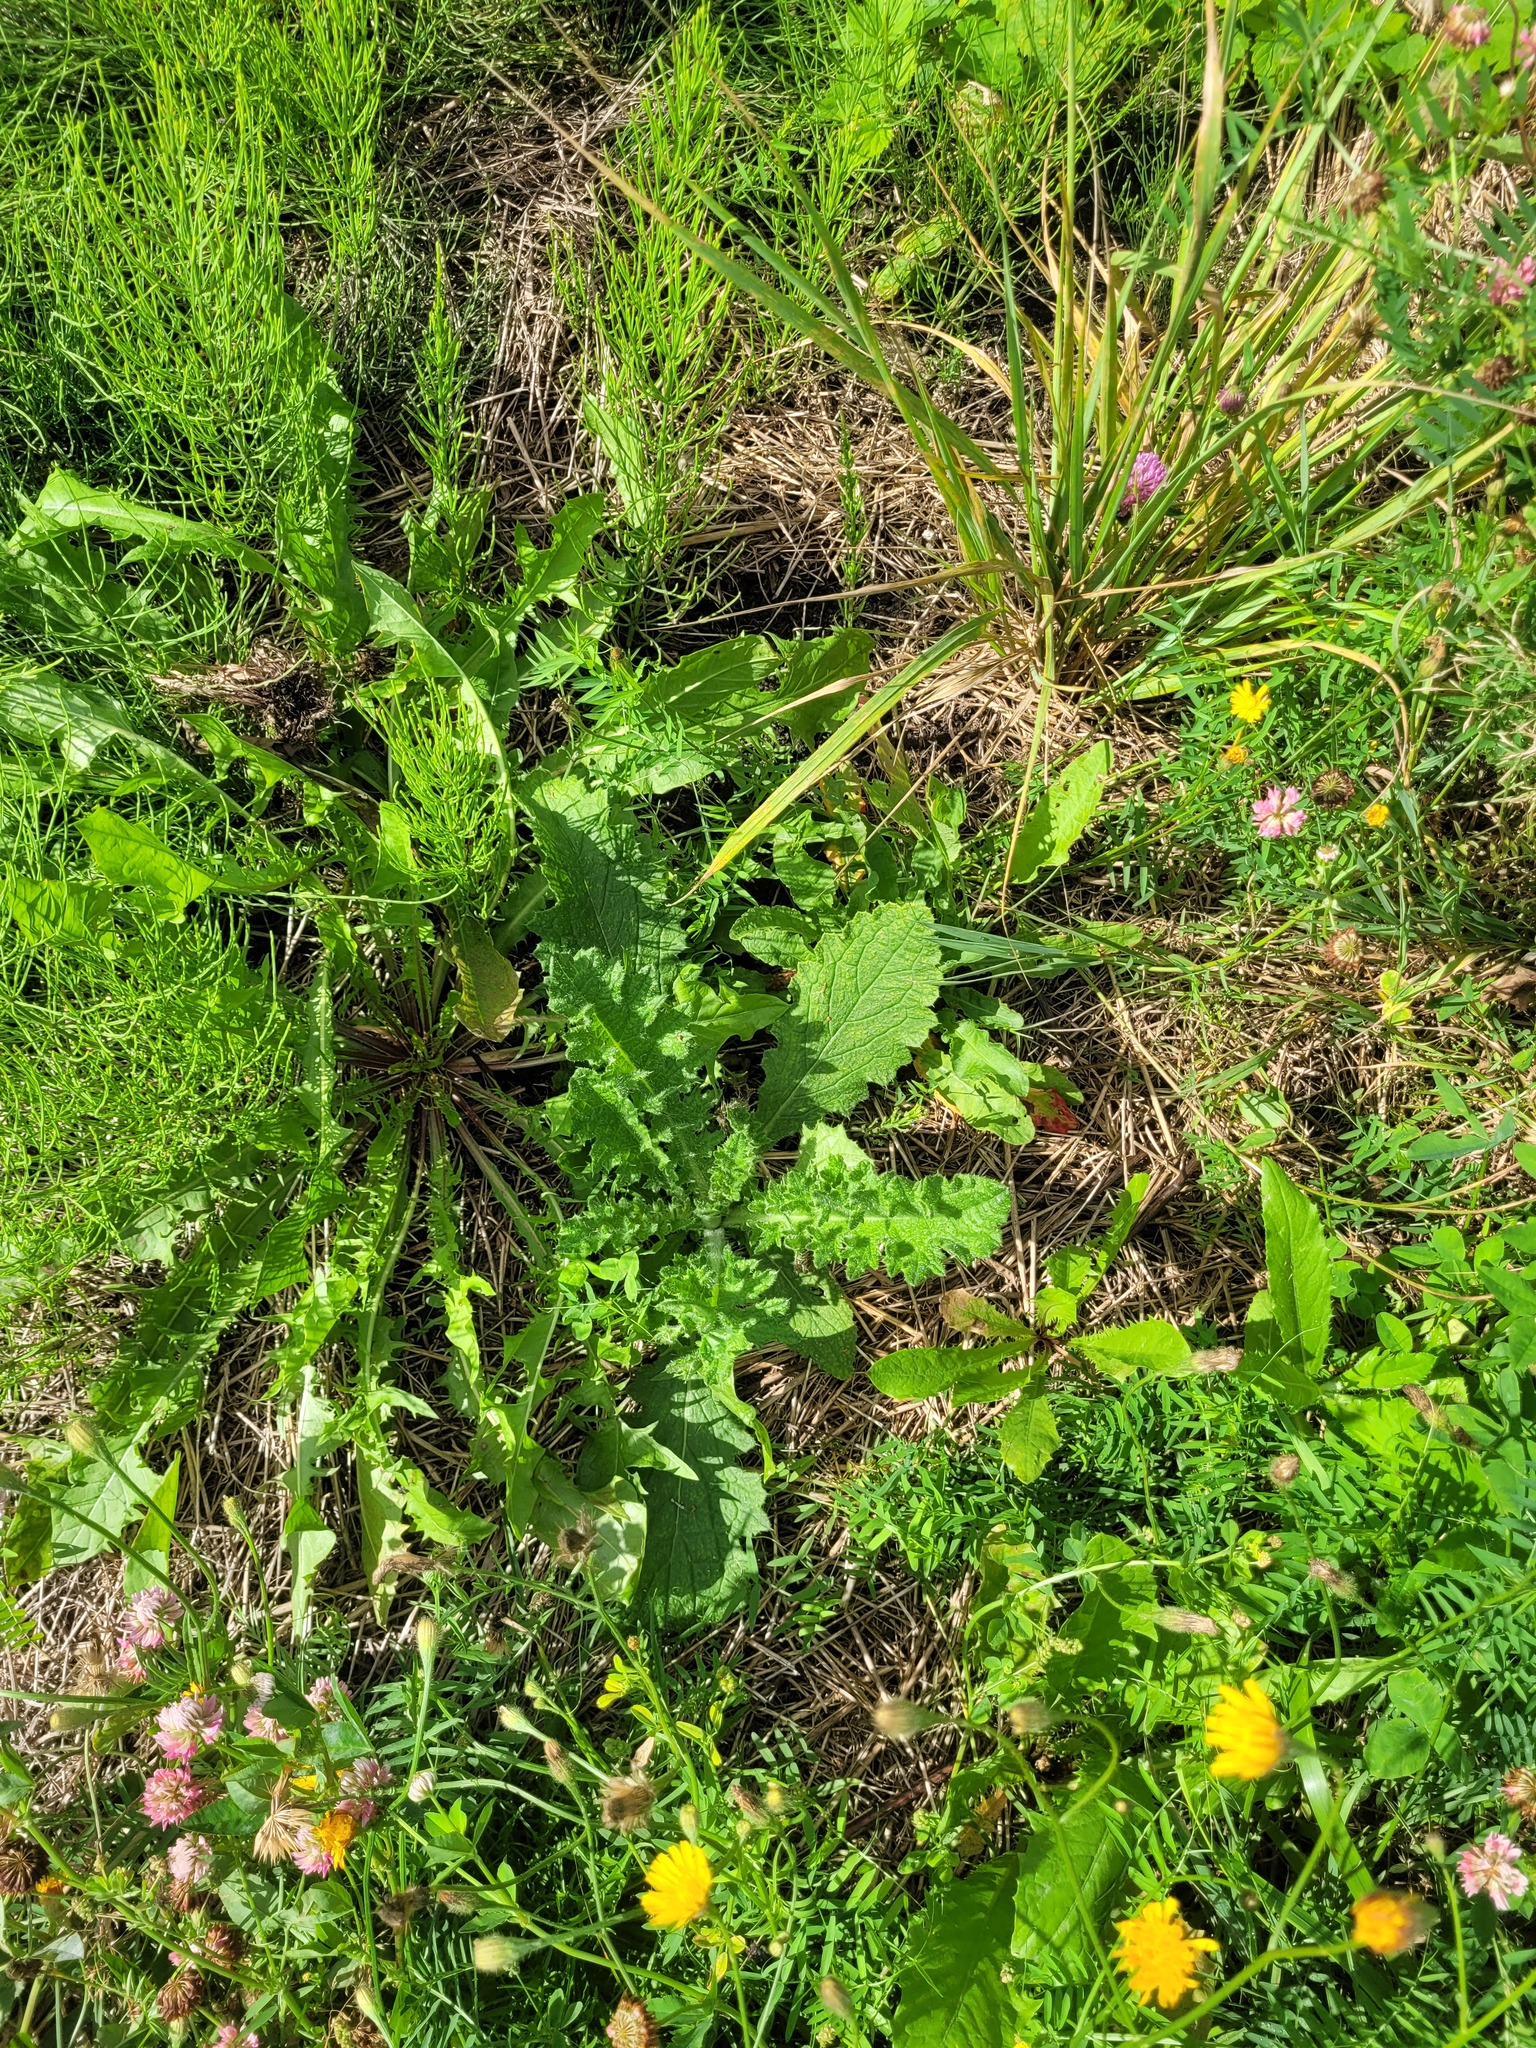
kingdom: Plantae
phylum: Tracheophyta
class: Magnoliopsida
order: Asterales
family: Asteraceae
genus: Cirsium
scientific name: Cirsium vulgare
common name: Bull thistle
